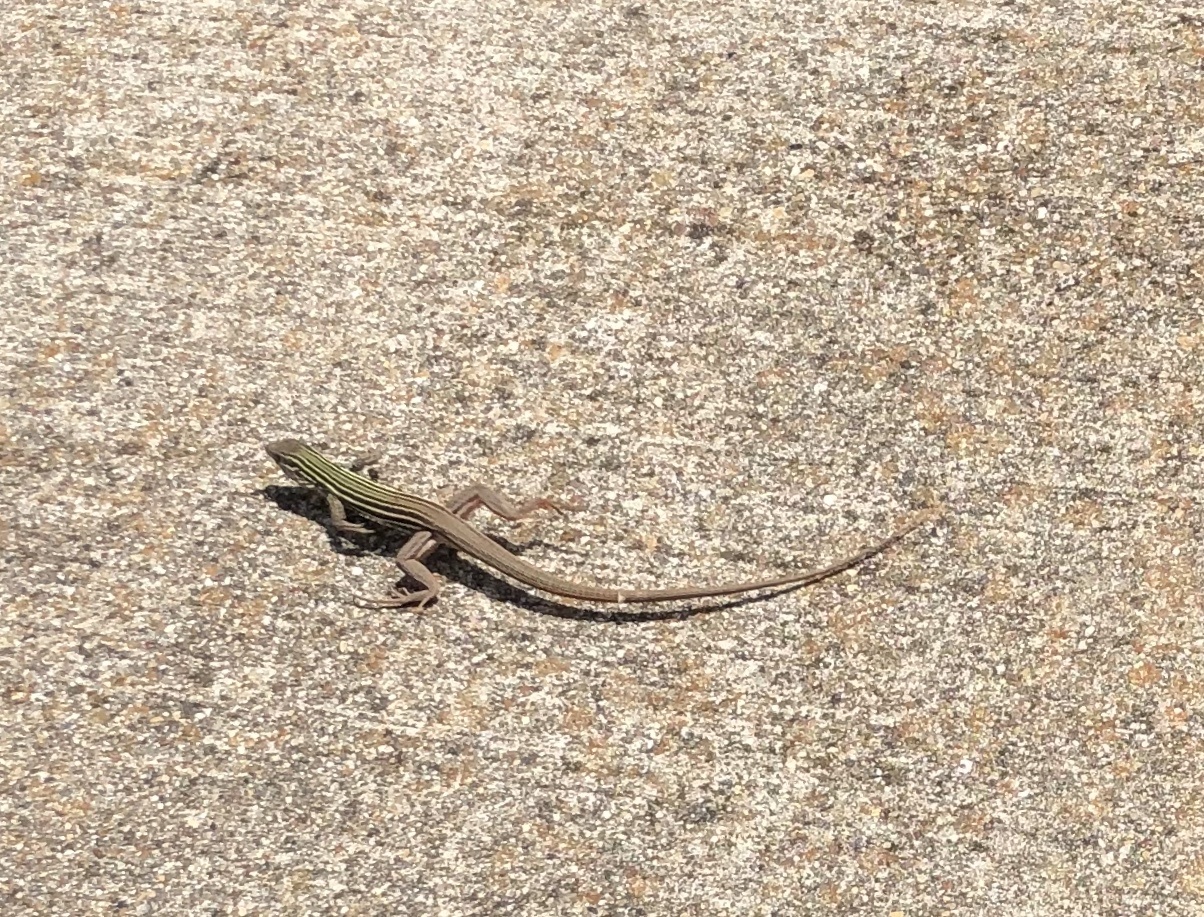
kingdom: Animalia
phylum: Chordata
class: Squamata
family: Teiidae
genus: Aspidoscelis
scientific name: Aspidoscelis gularis
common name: Eastern spotted whiptail
